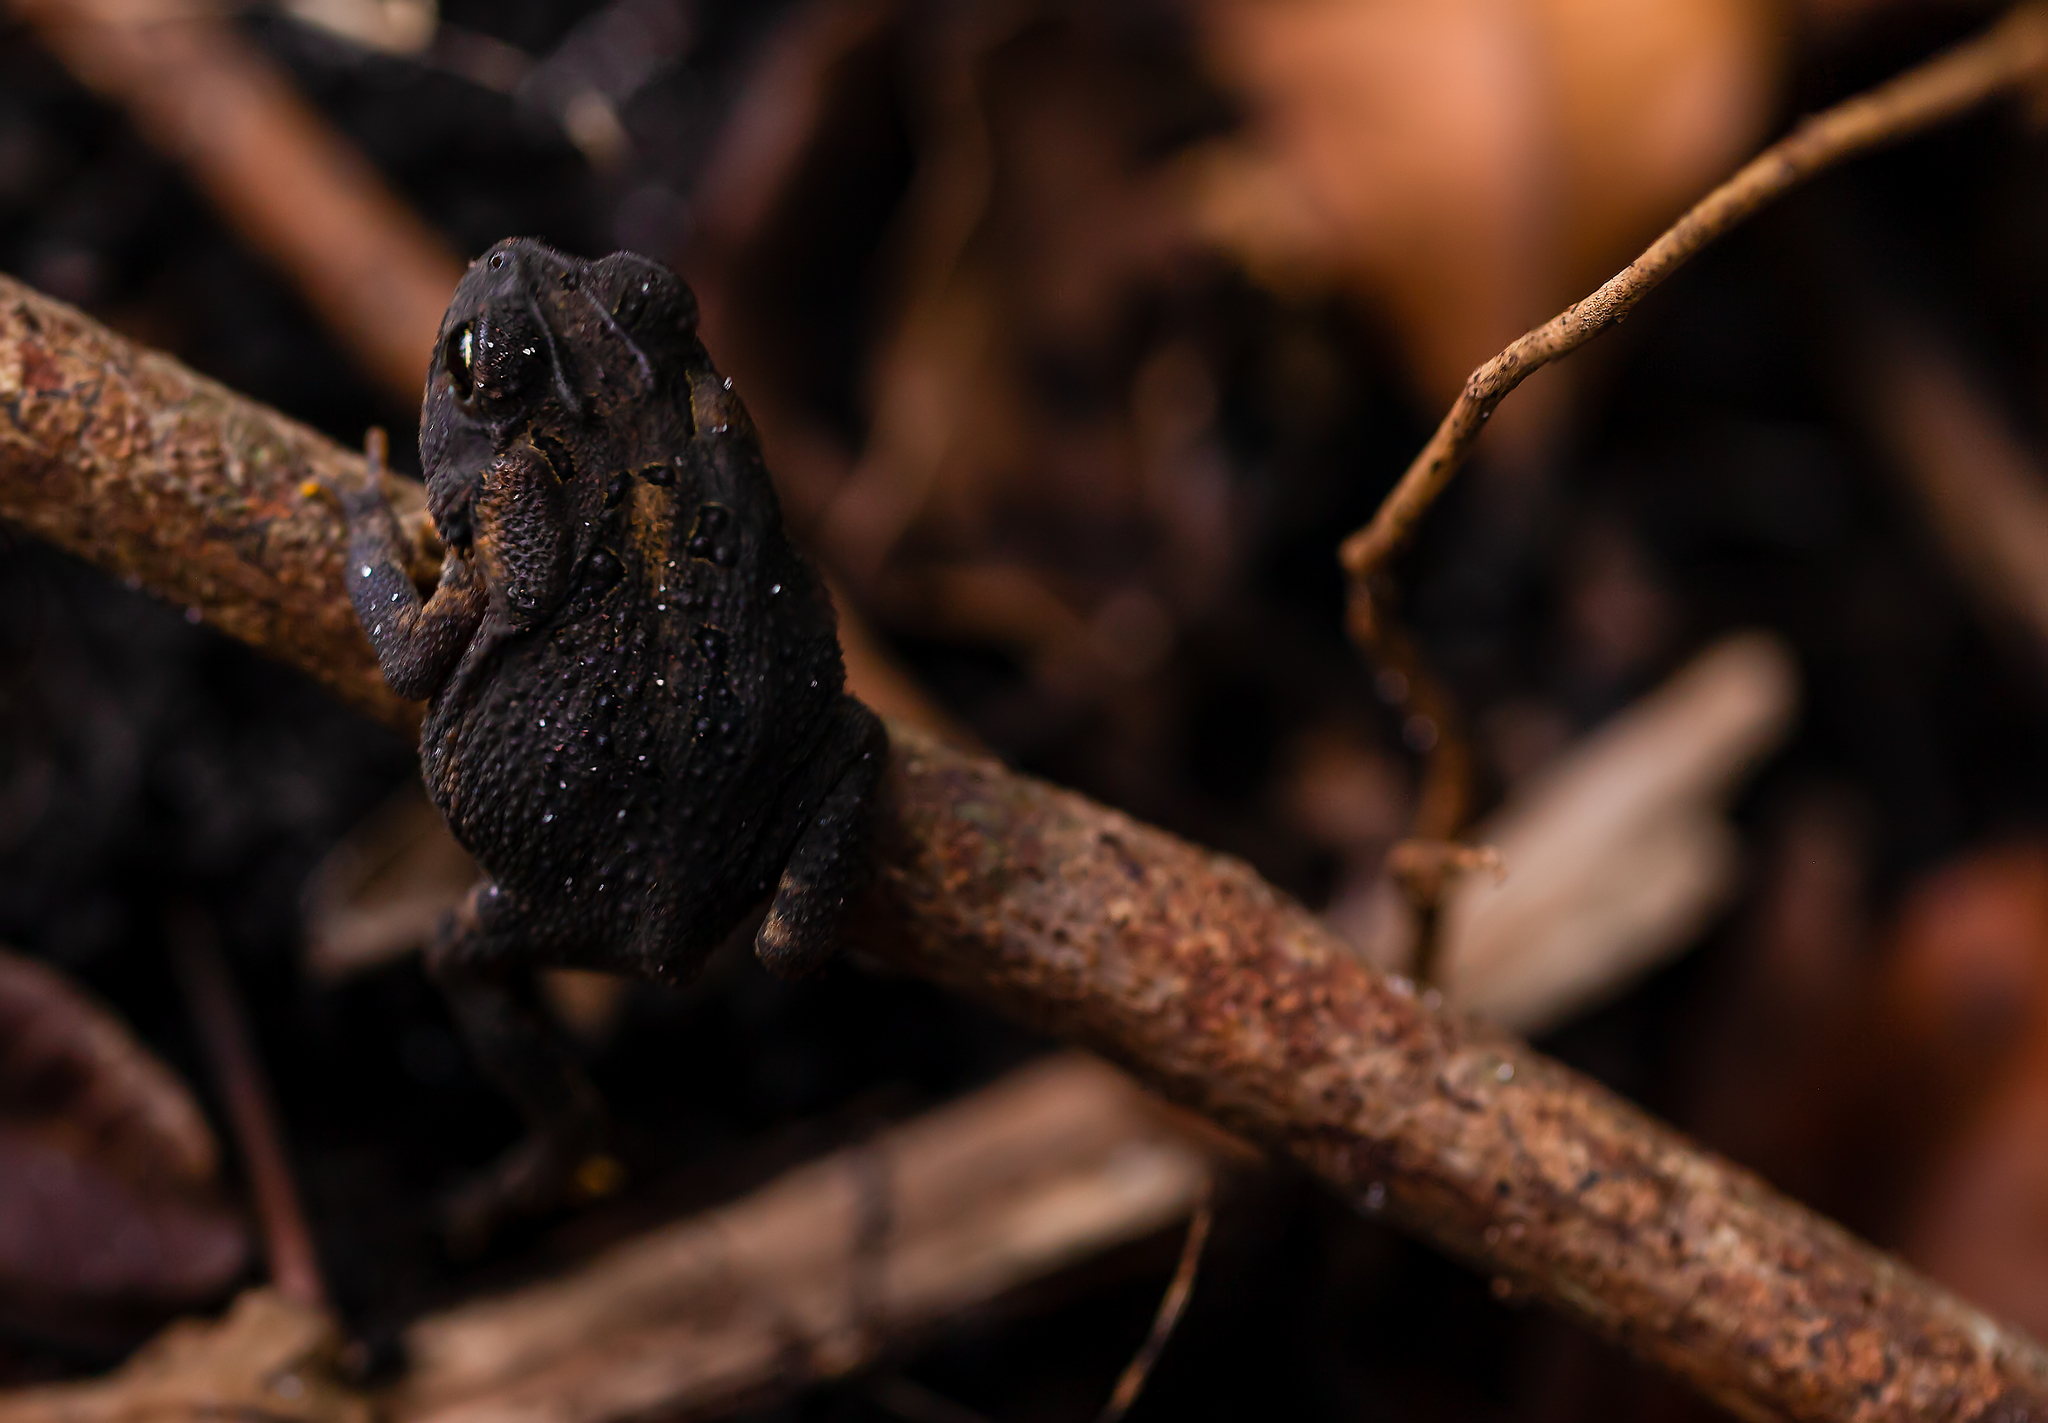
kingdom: Animalia
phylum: Chordata
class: Amphibia
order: Anura
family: Bufonidae
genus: Anaxyrus
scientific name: Anaxyrus terrestris
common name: Southern toad
